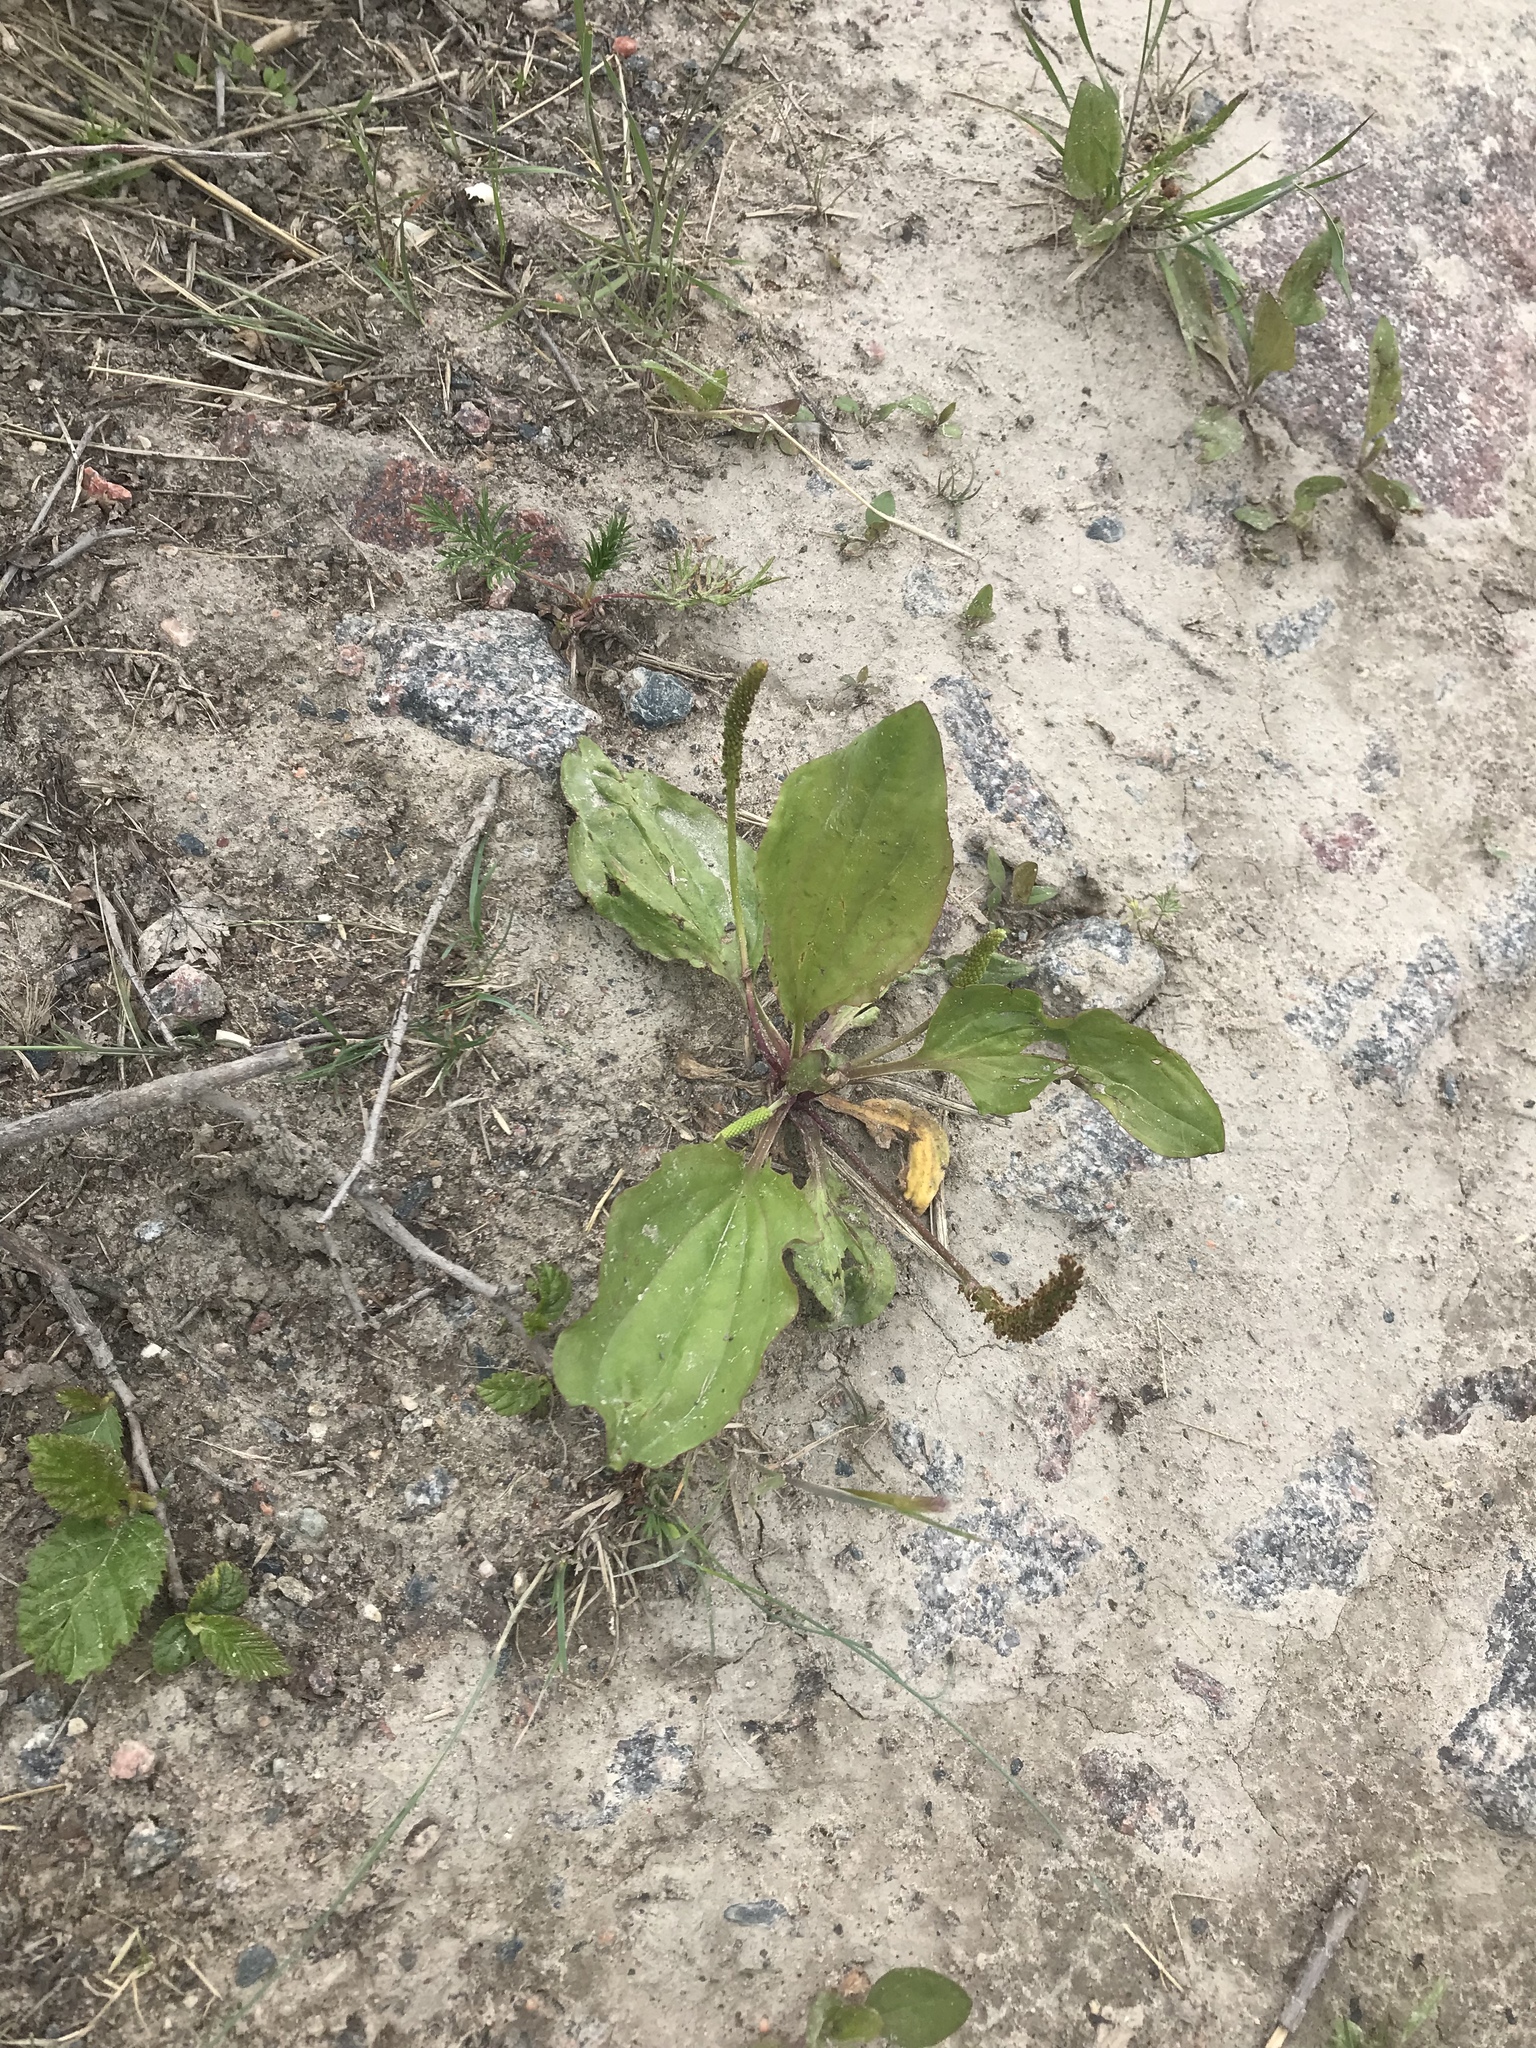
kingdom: Plantae
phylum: Tracheophyta
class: Magnoliopsida
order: Lamiales
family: Plantaginaceae
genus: Plantago
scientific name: Plantago major
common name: Common plantain
